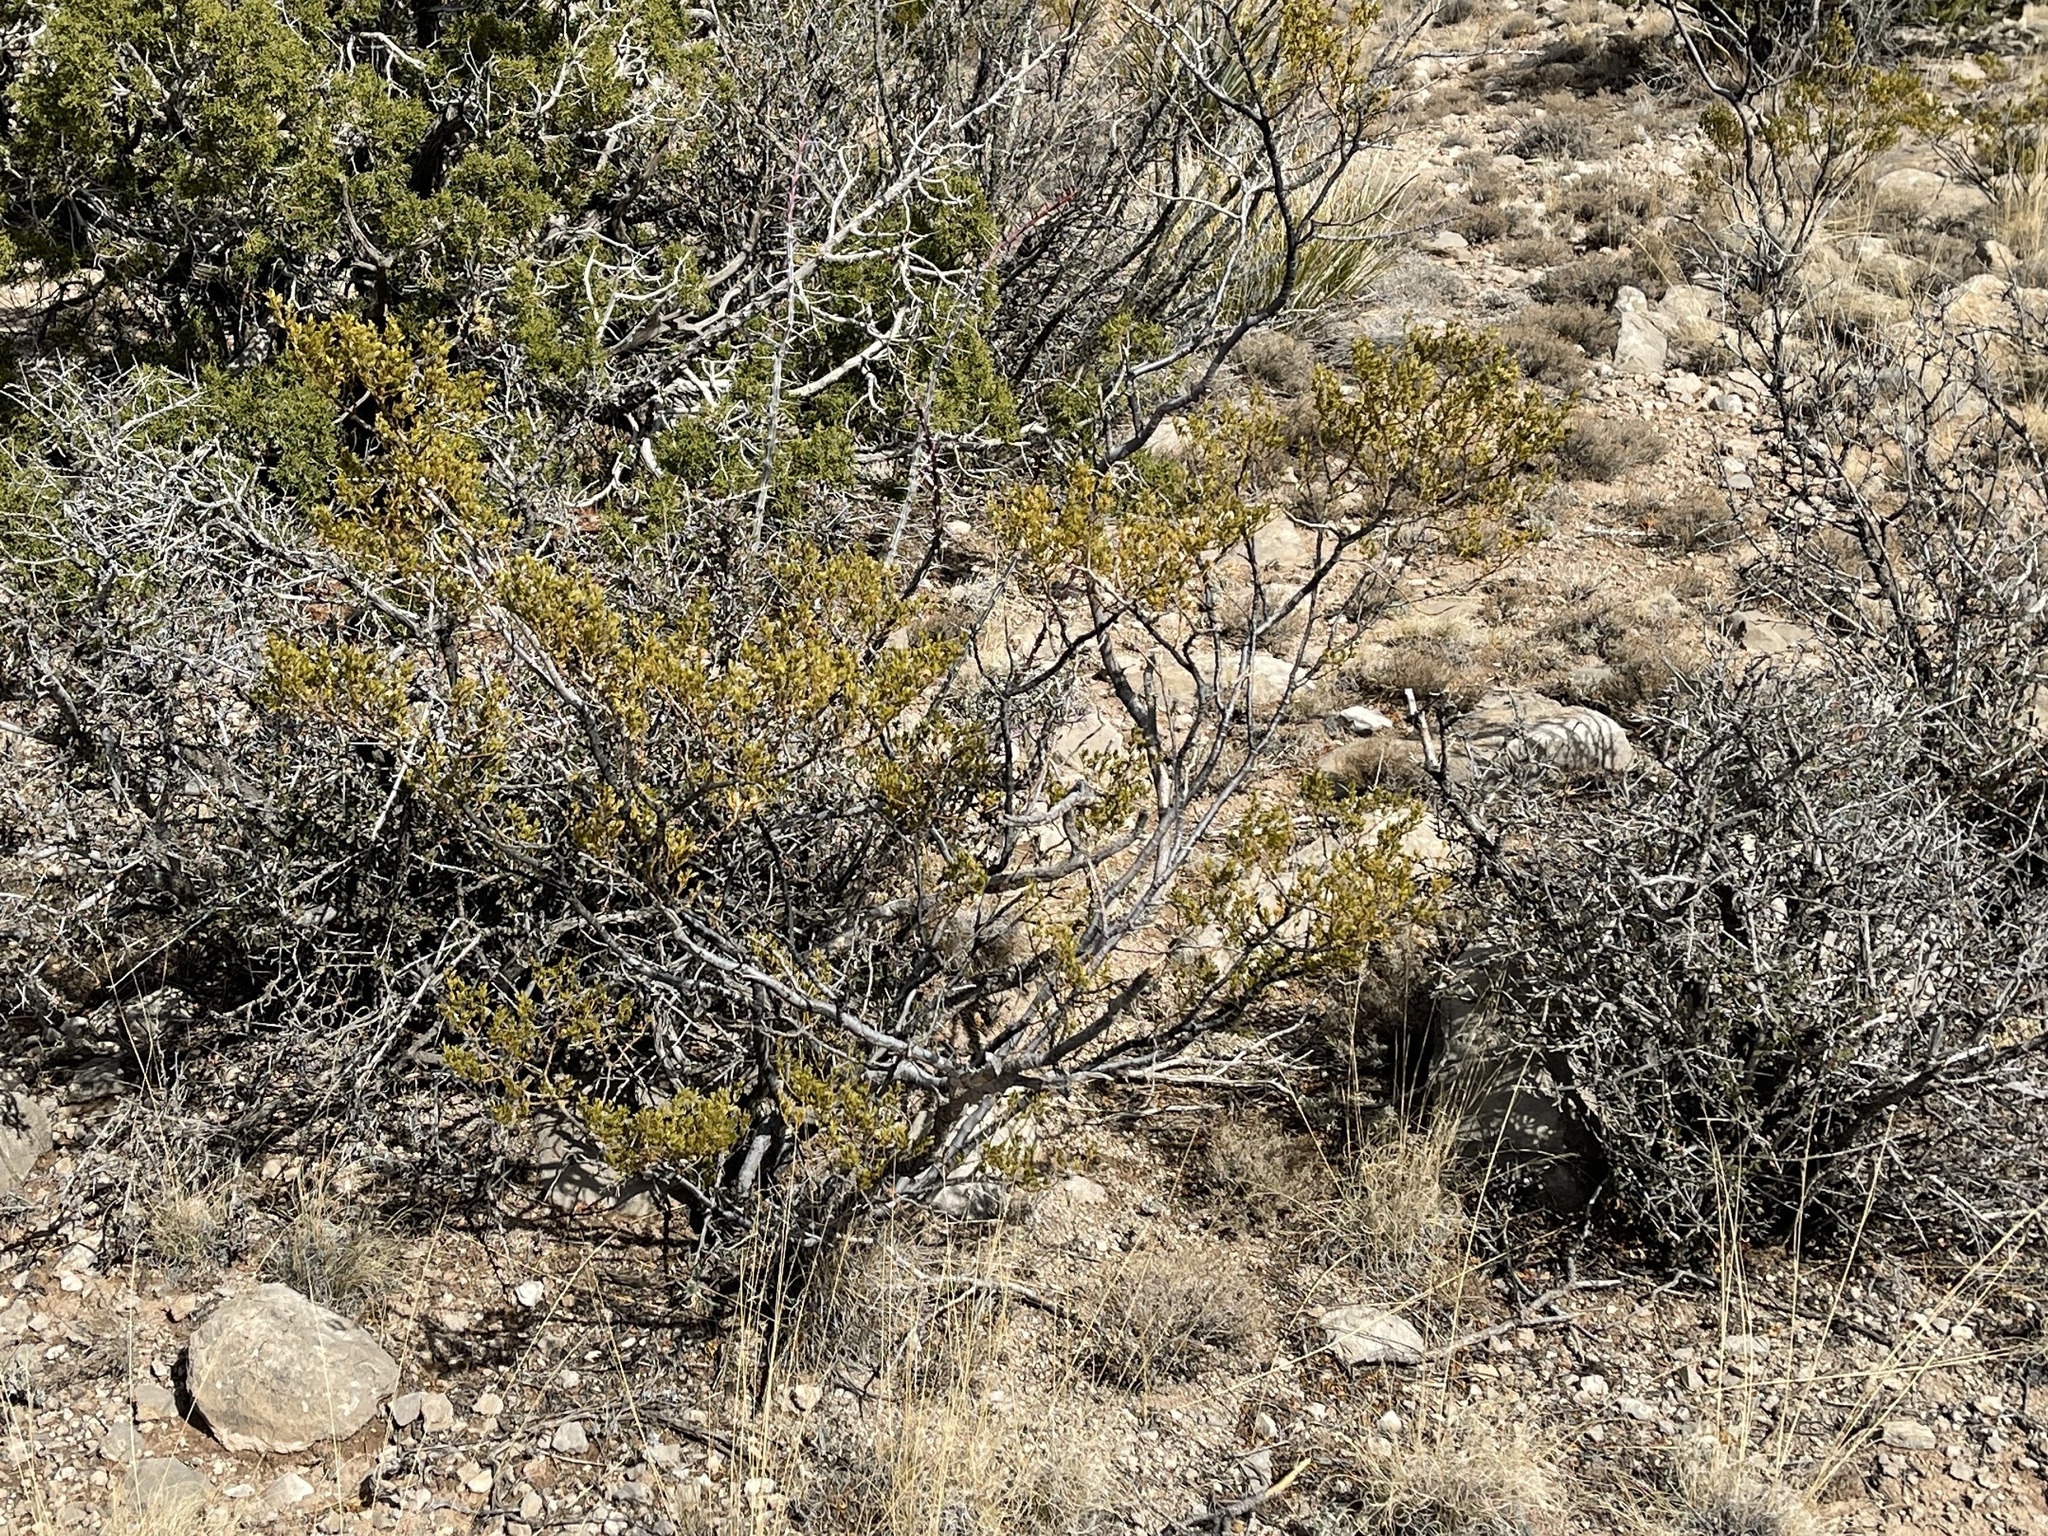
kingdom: Plantae
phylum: Tracheophyta
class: Magnoliopsida
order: Zygophyllales
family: Zygophyllaceae
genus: Larrea
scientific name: Larrea tridentata
